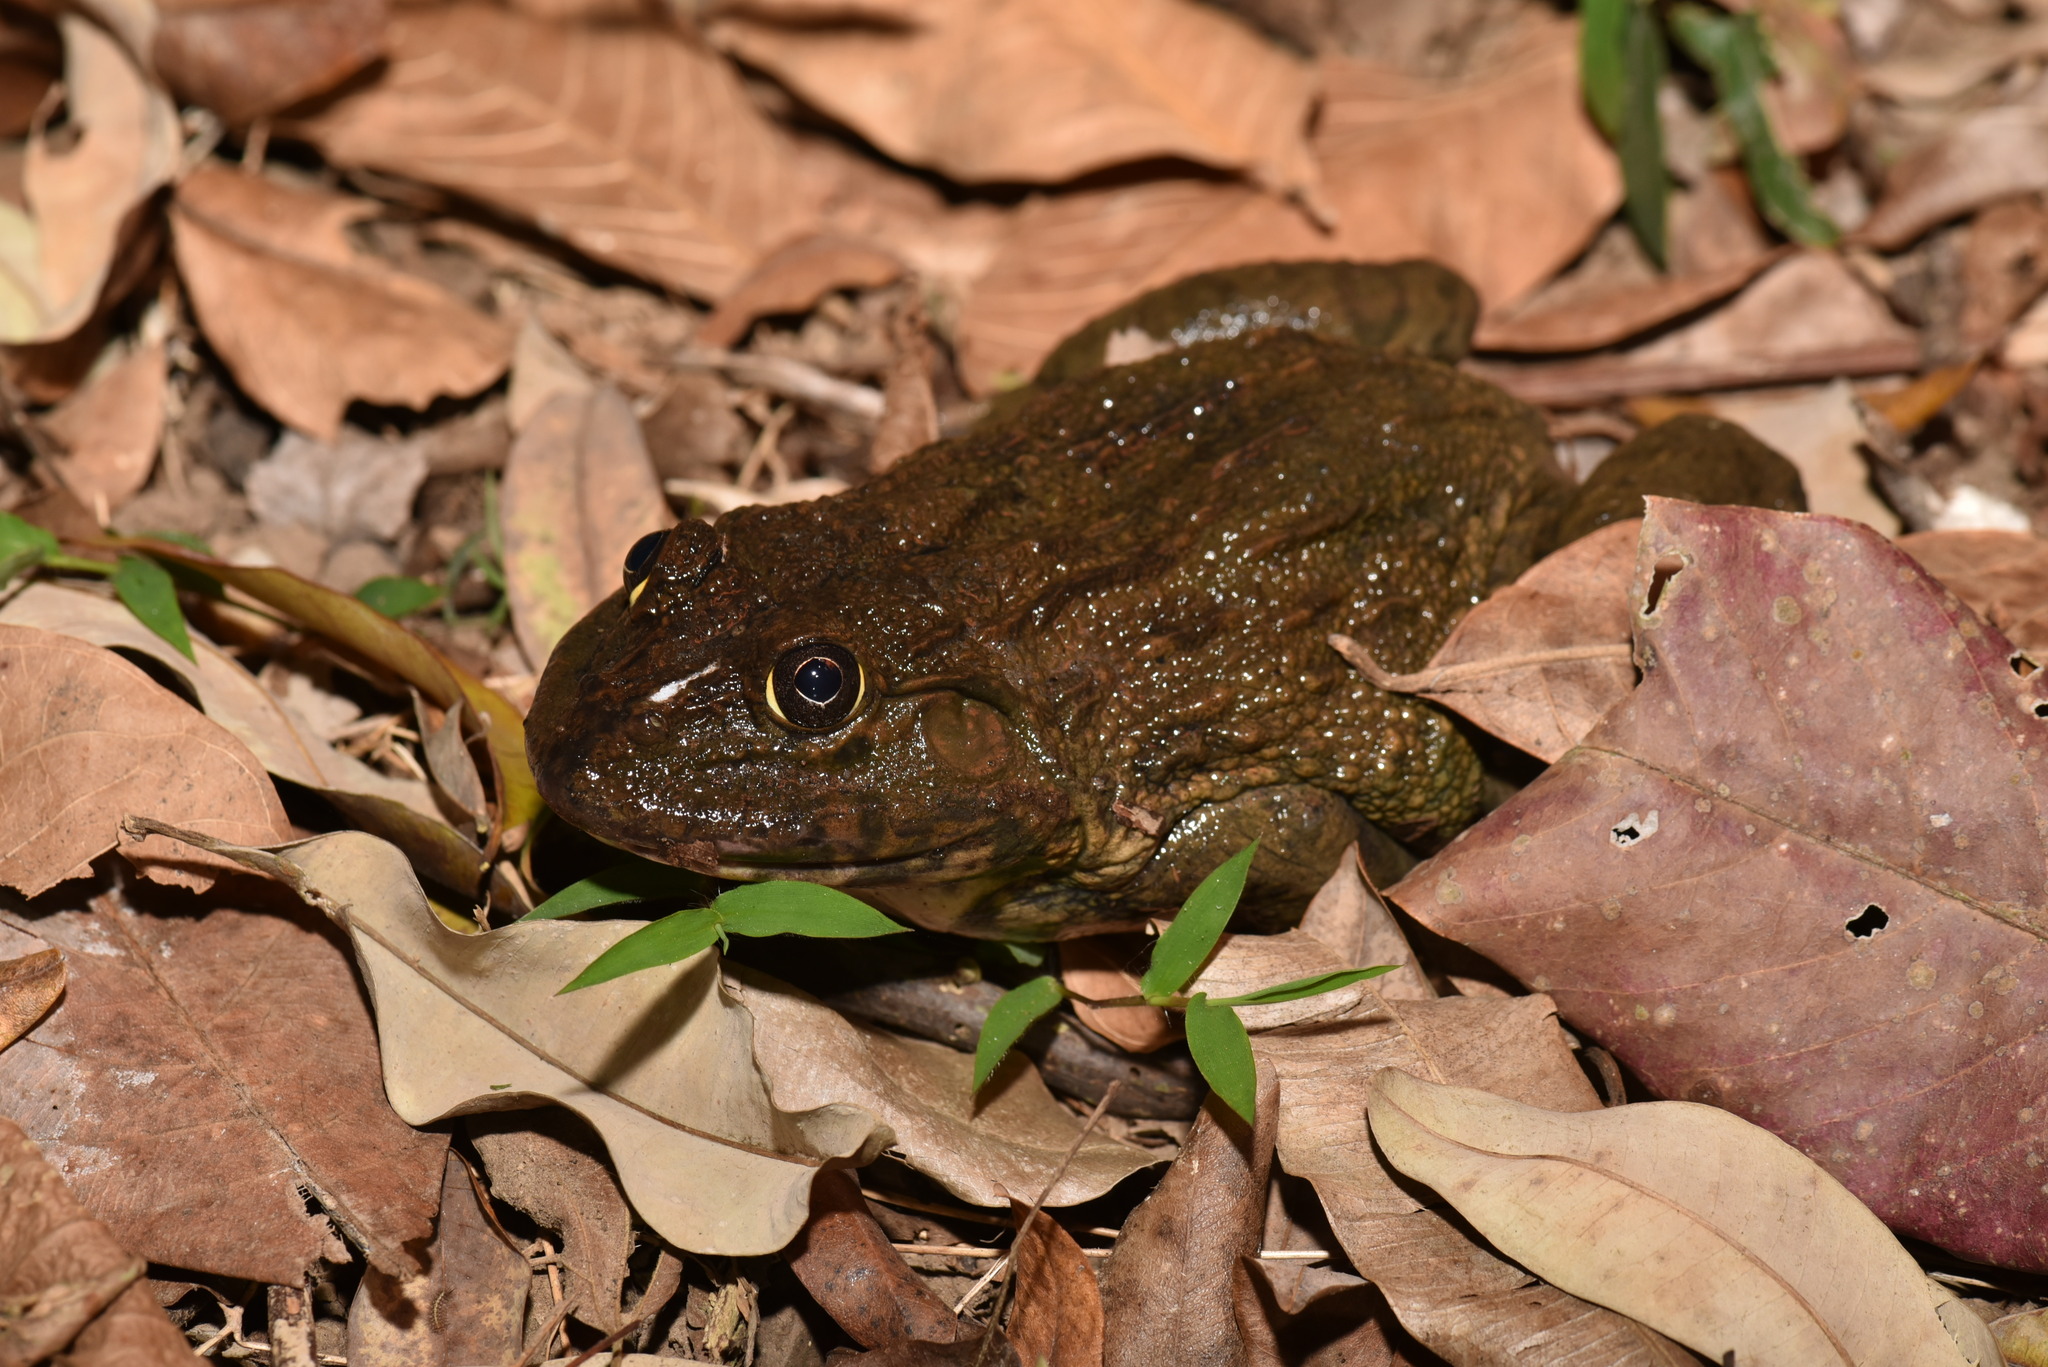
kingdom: Animalia
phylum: Chordata
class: Amphibia
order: Anura
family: Dicroglossidae
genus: Hoplobatrachus
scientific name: Hoplobatrachus rugulosus
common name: Chinese edible frog
